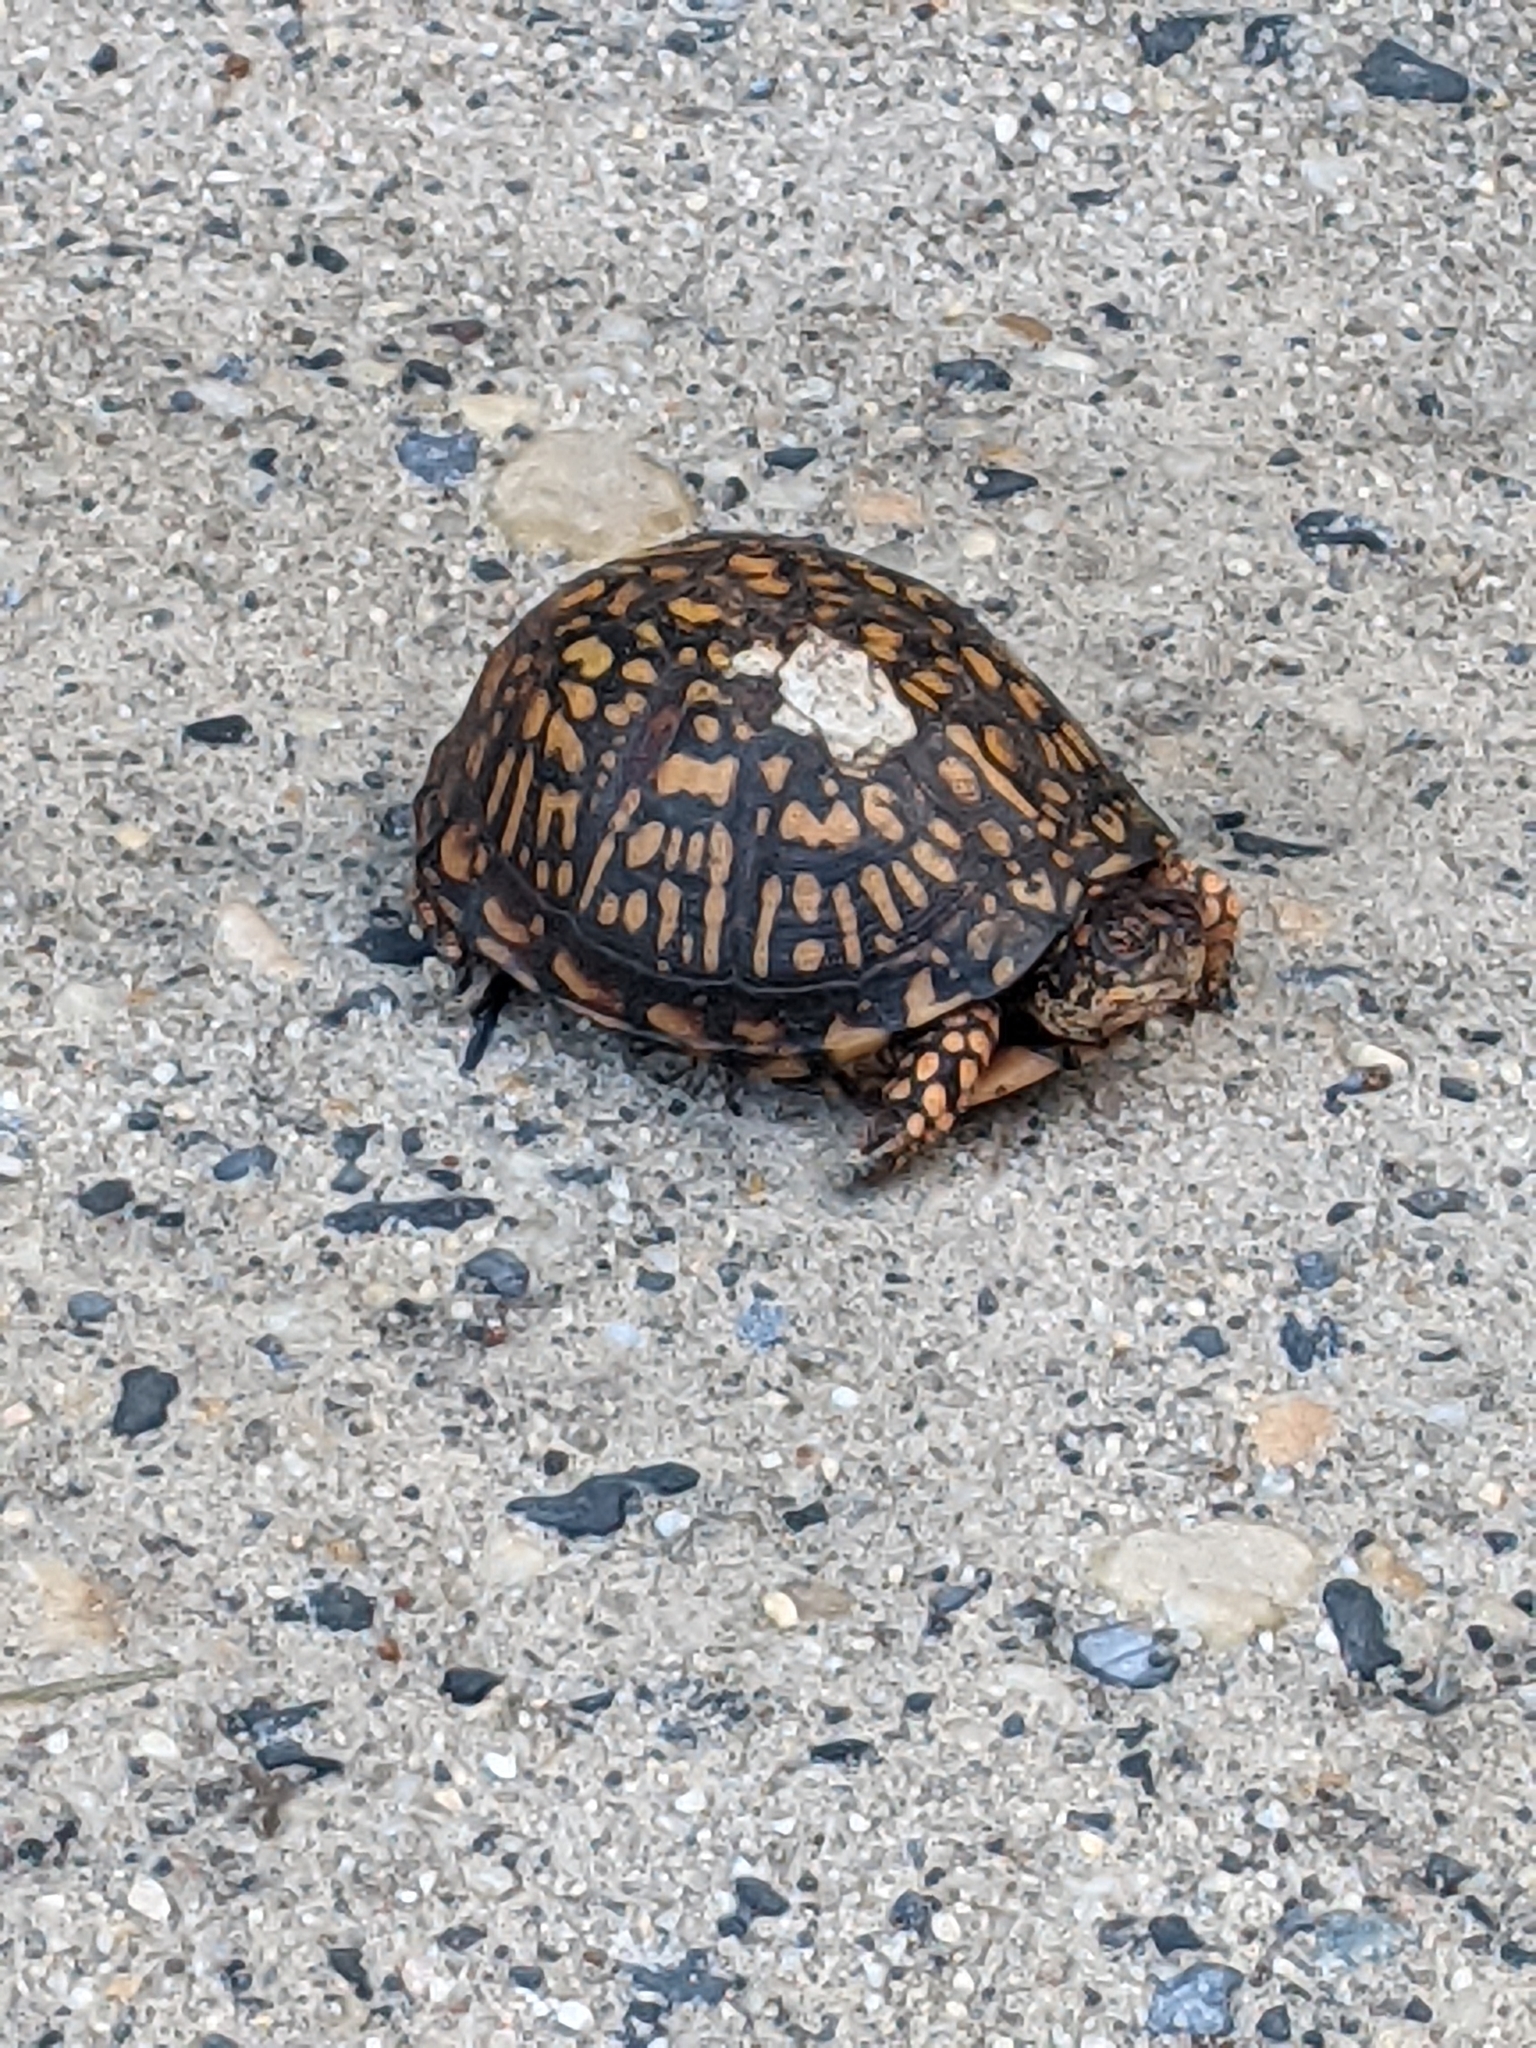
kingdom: Animalia
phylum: Chordata
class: Testudines
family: Emydidae
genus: Terrapene
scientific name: Terrapene carolina
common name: Common box turtle
